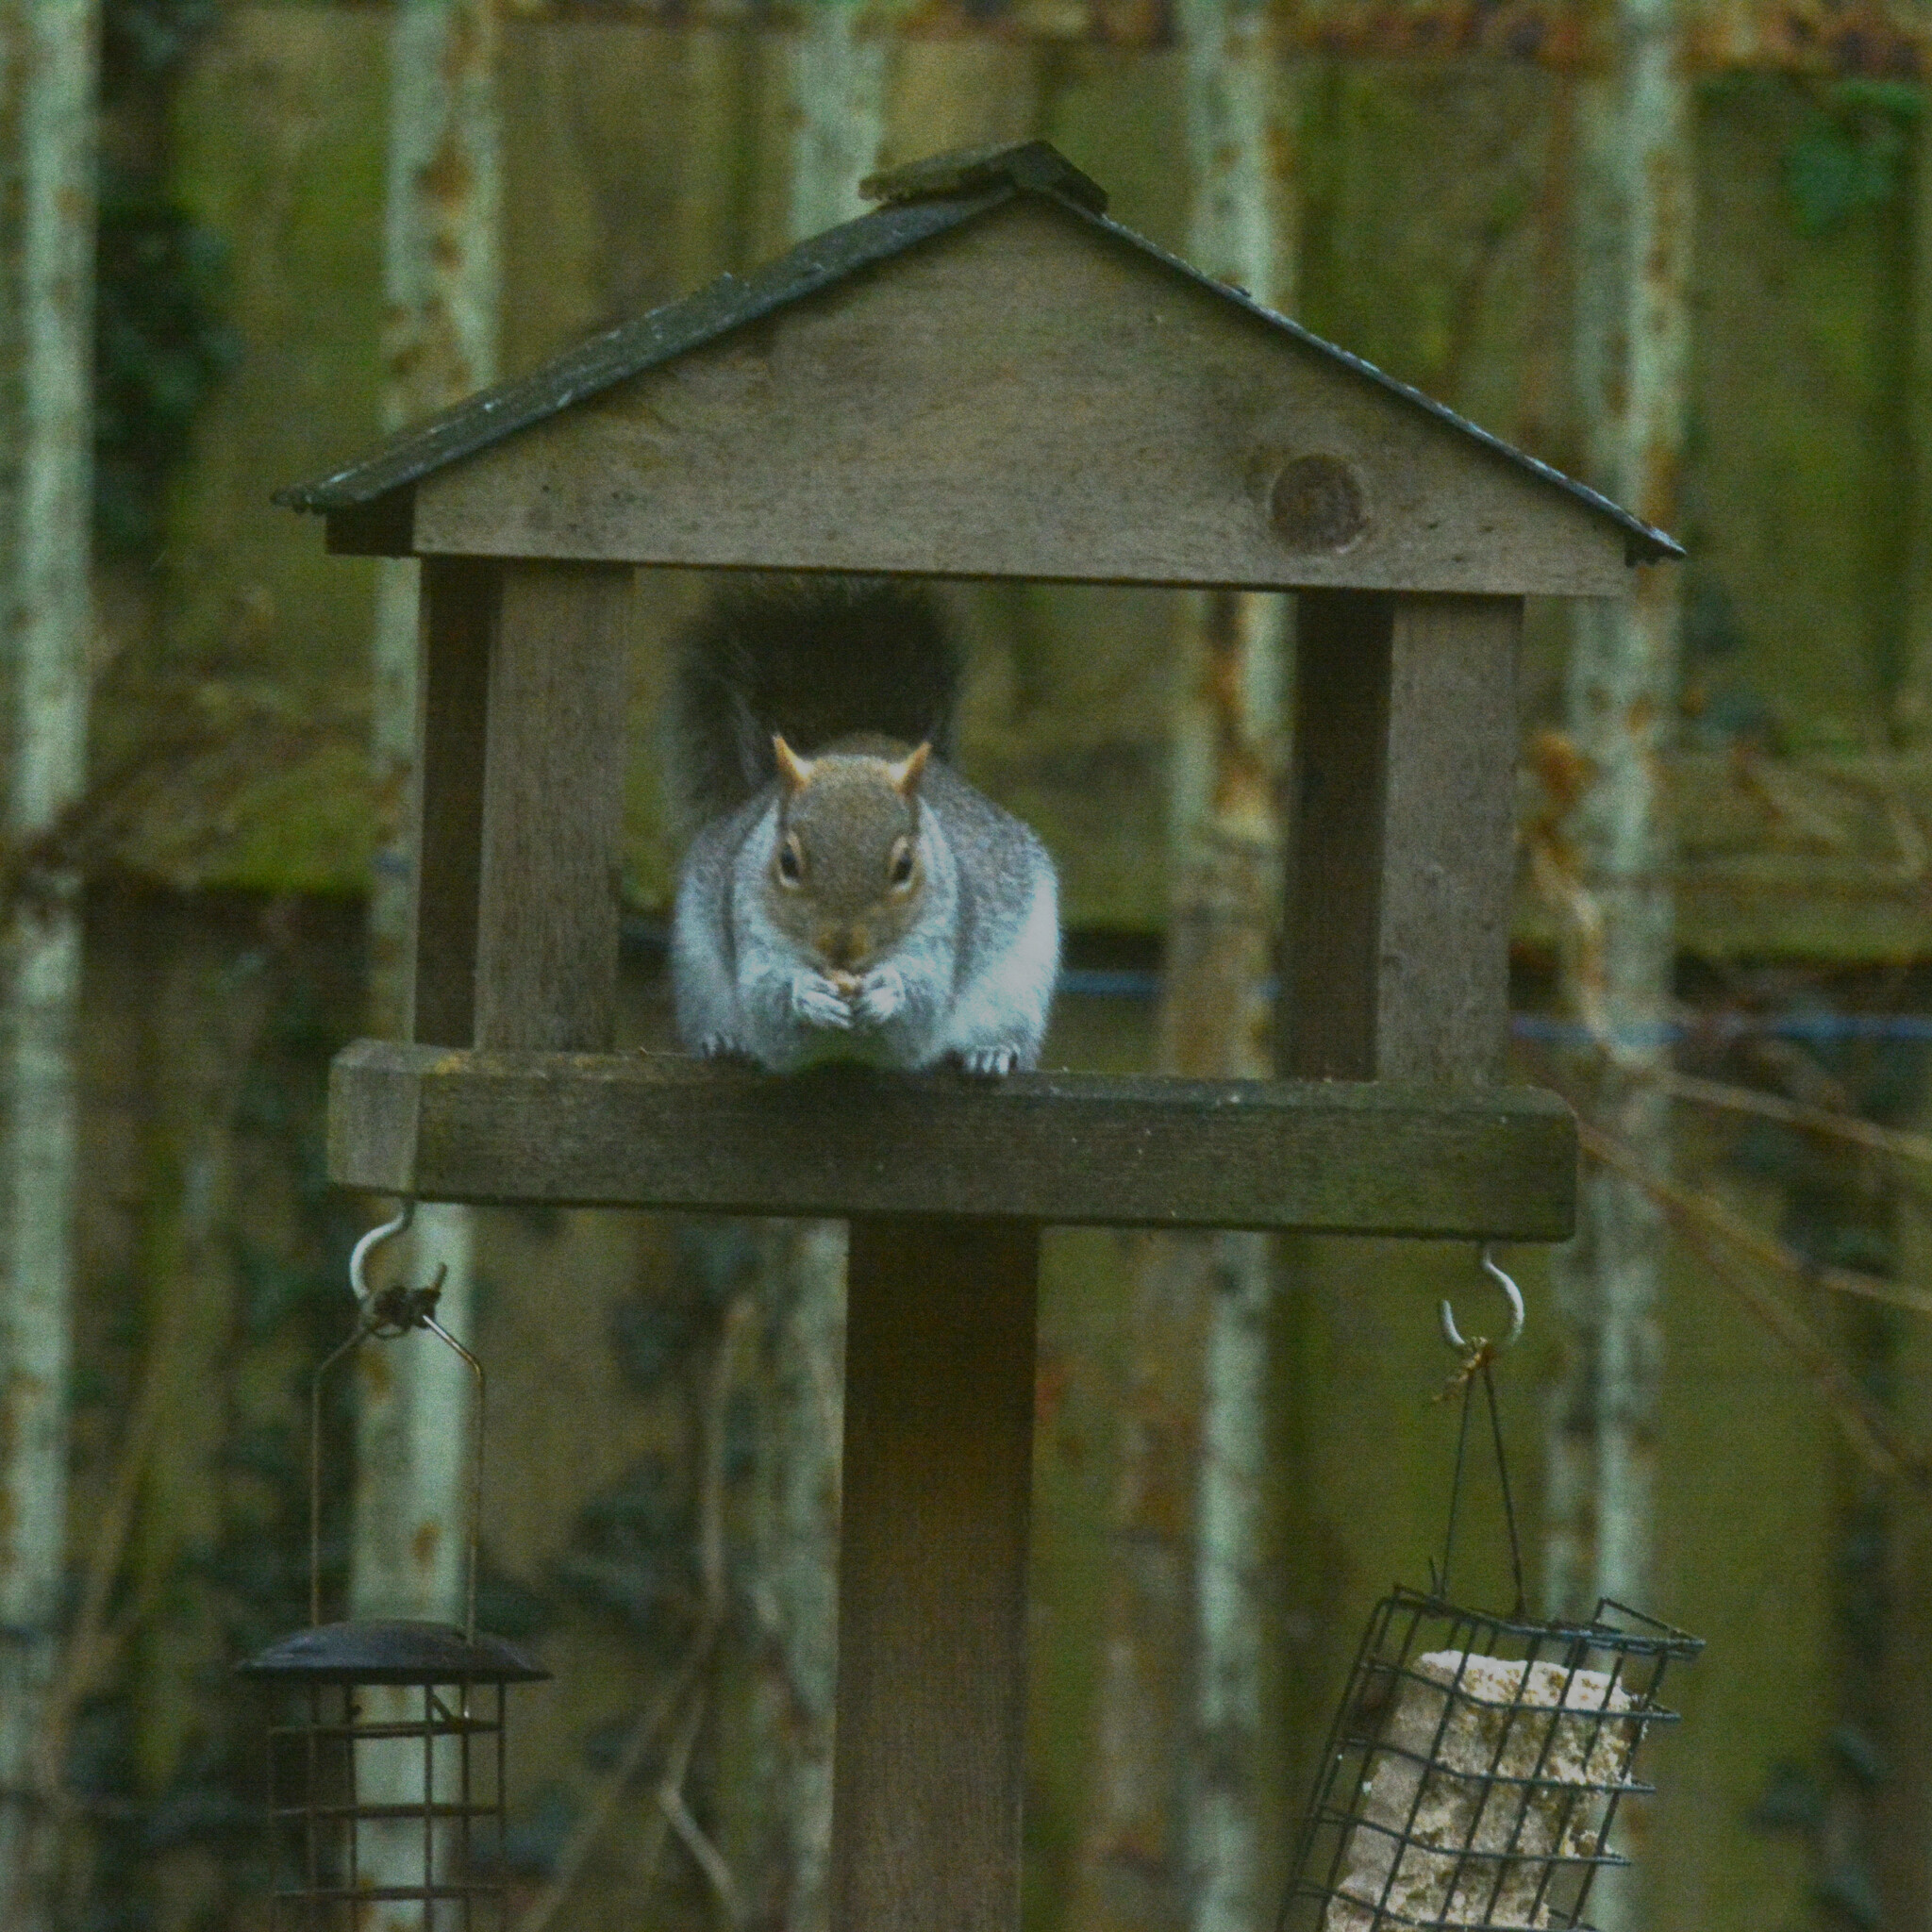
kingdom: Animalia
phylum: Chordata
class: Mammalia
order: Rodentia
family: Sciuridae
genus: Sciurus
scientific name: Sciurus carolinensis
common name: Eastern gray squirrel
